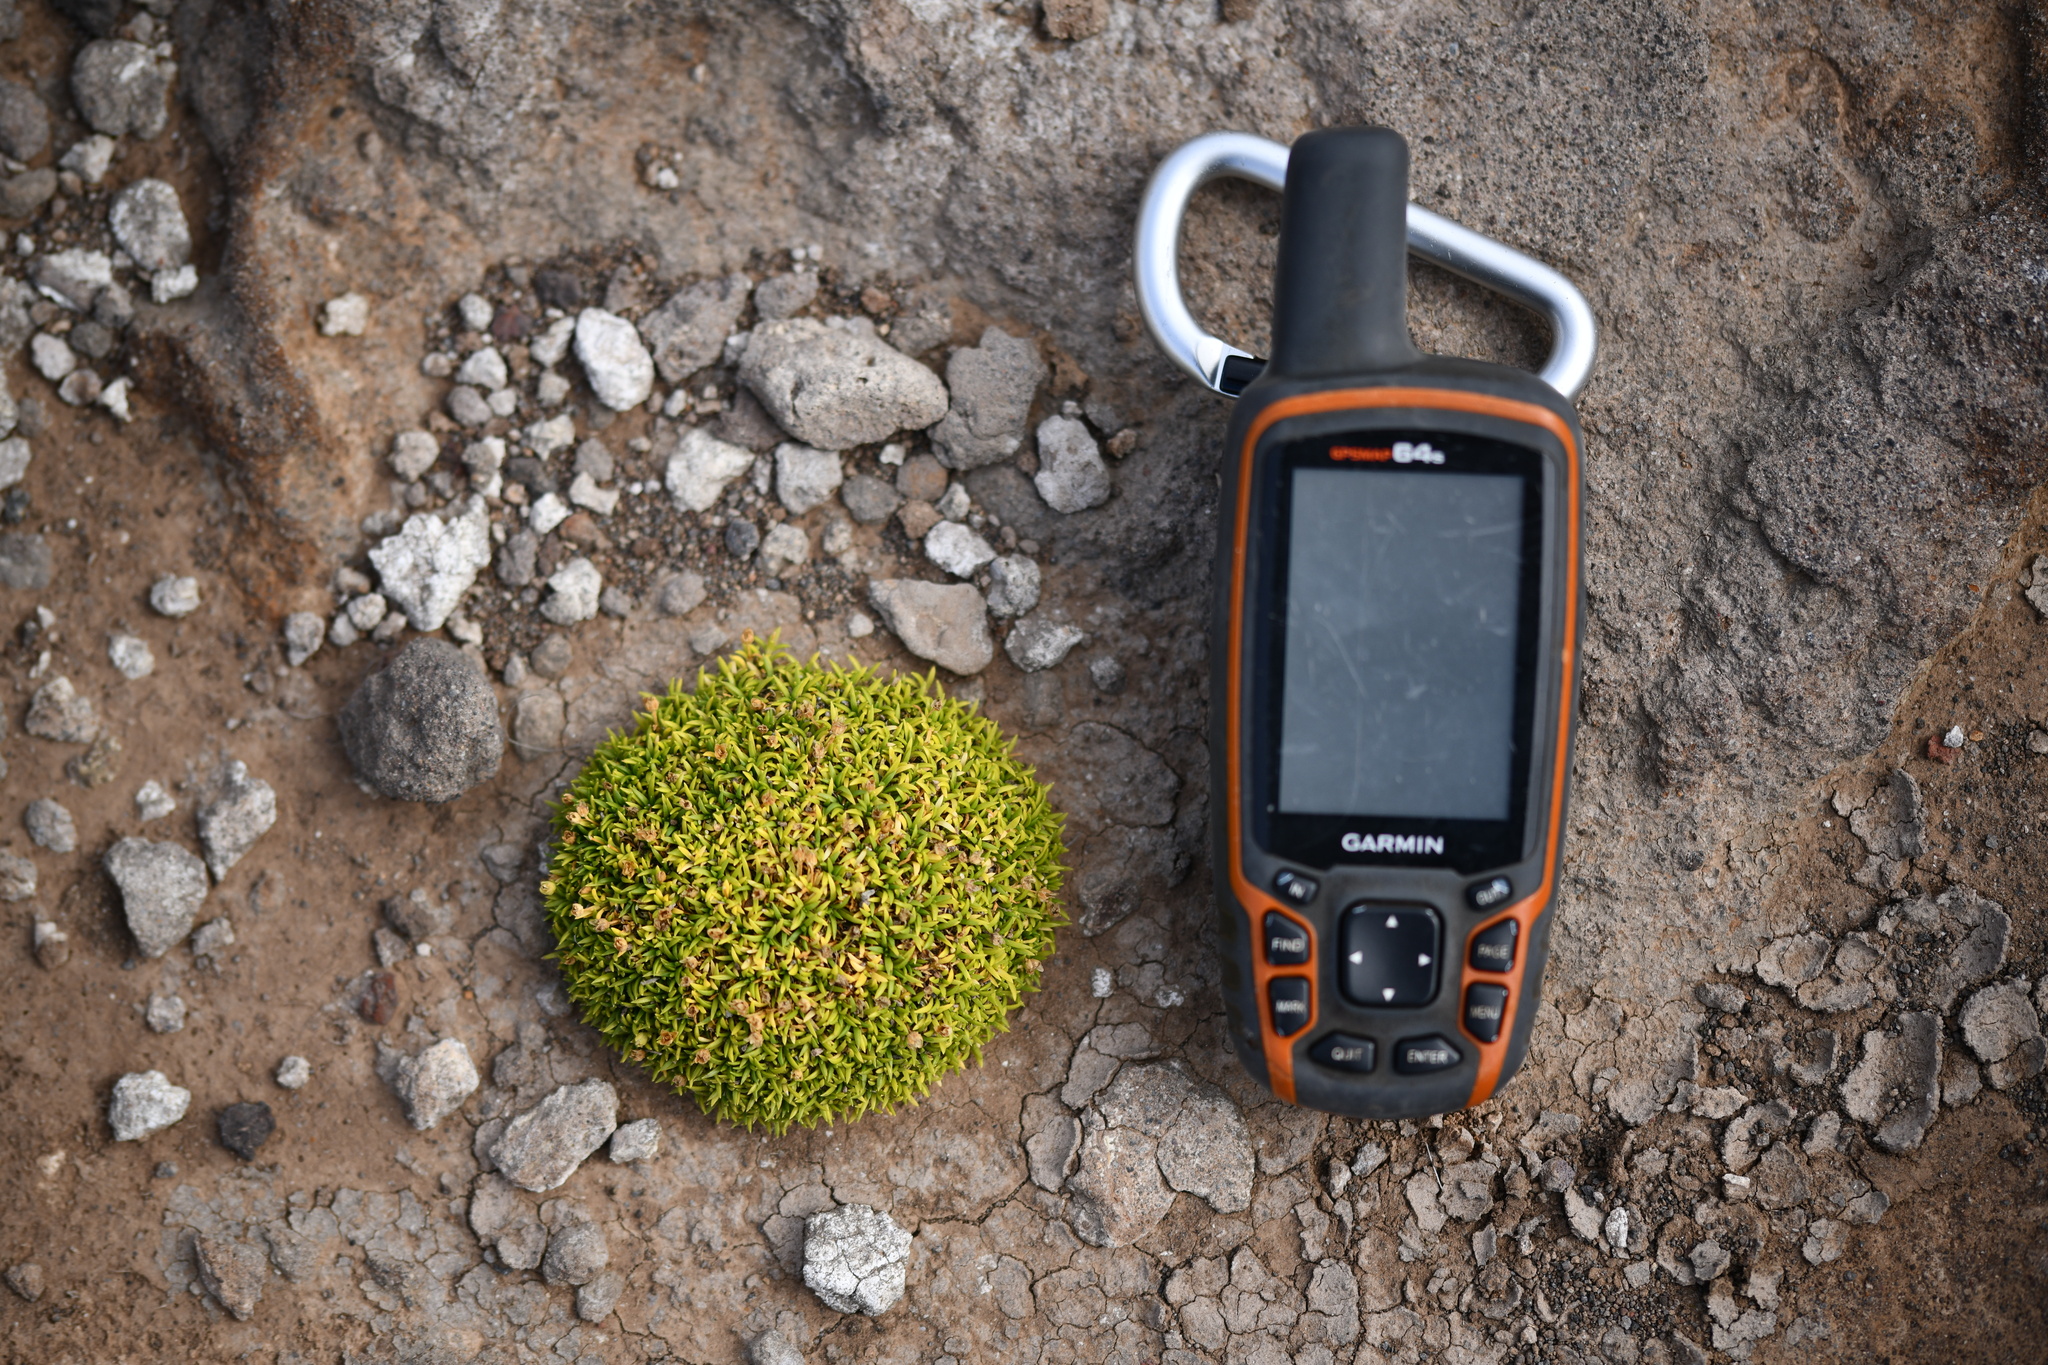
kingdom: Plantae
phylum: Tracheophyta
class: Magnoliopsida
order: Caryophyllales
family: Caryophyllaceae
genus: Sagina
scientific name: Sagina hookeri
